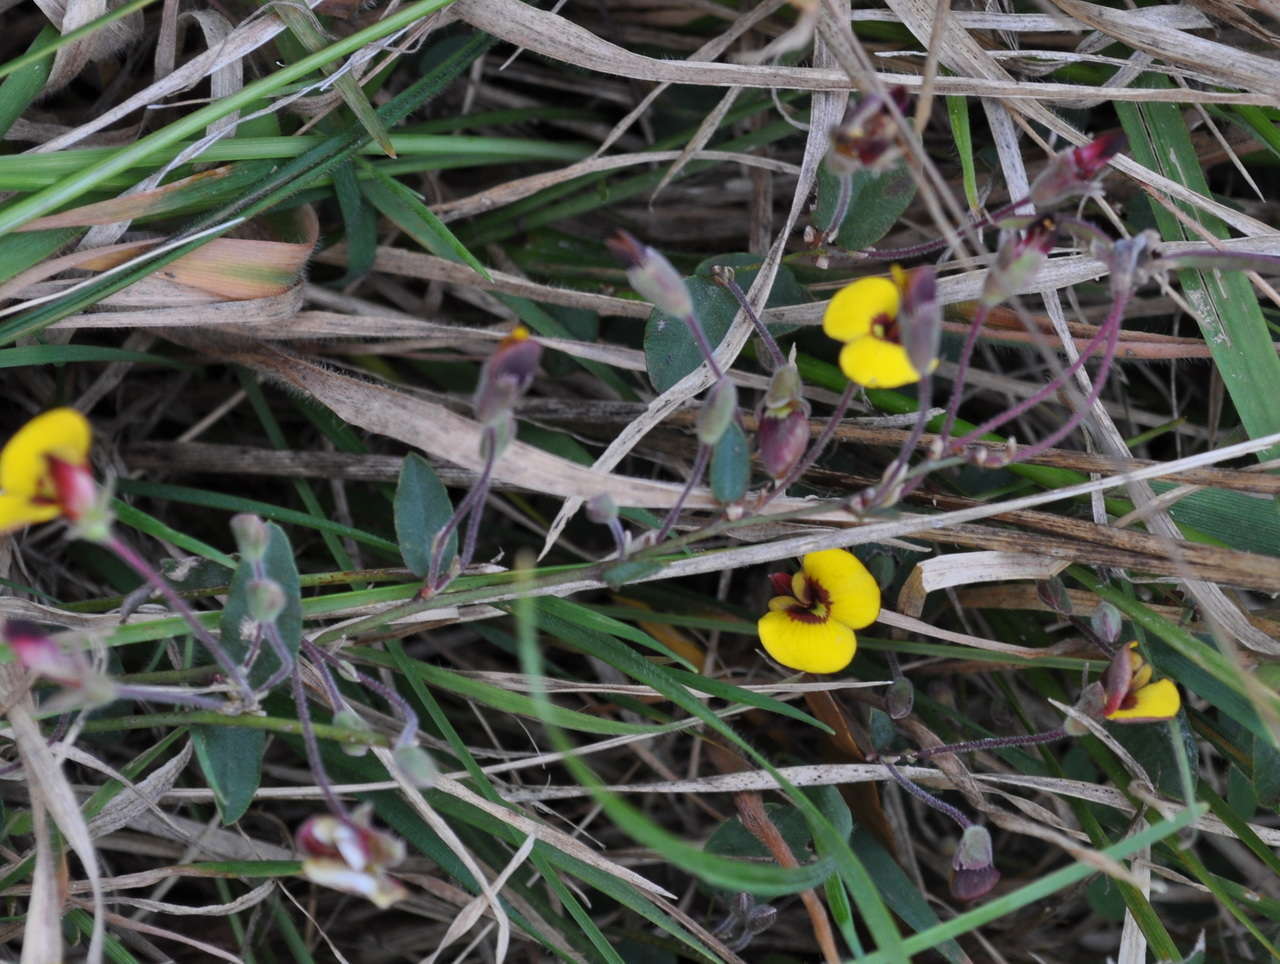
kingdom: Plantae
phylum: Tracheophyta
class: Magnoliopsida
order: Fabales
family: Fabaceae
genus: Bossiaea
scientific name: Bossiaea prostrata
